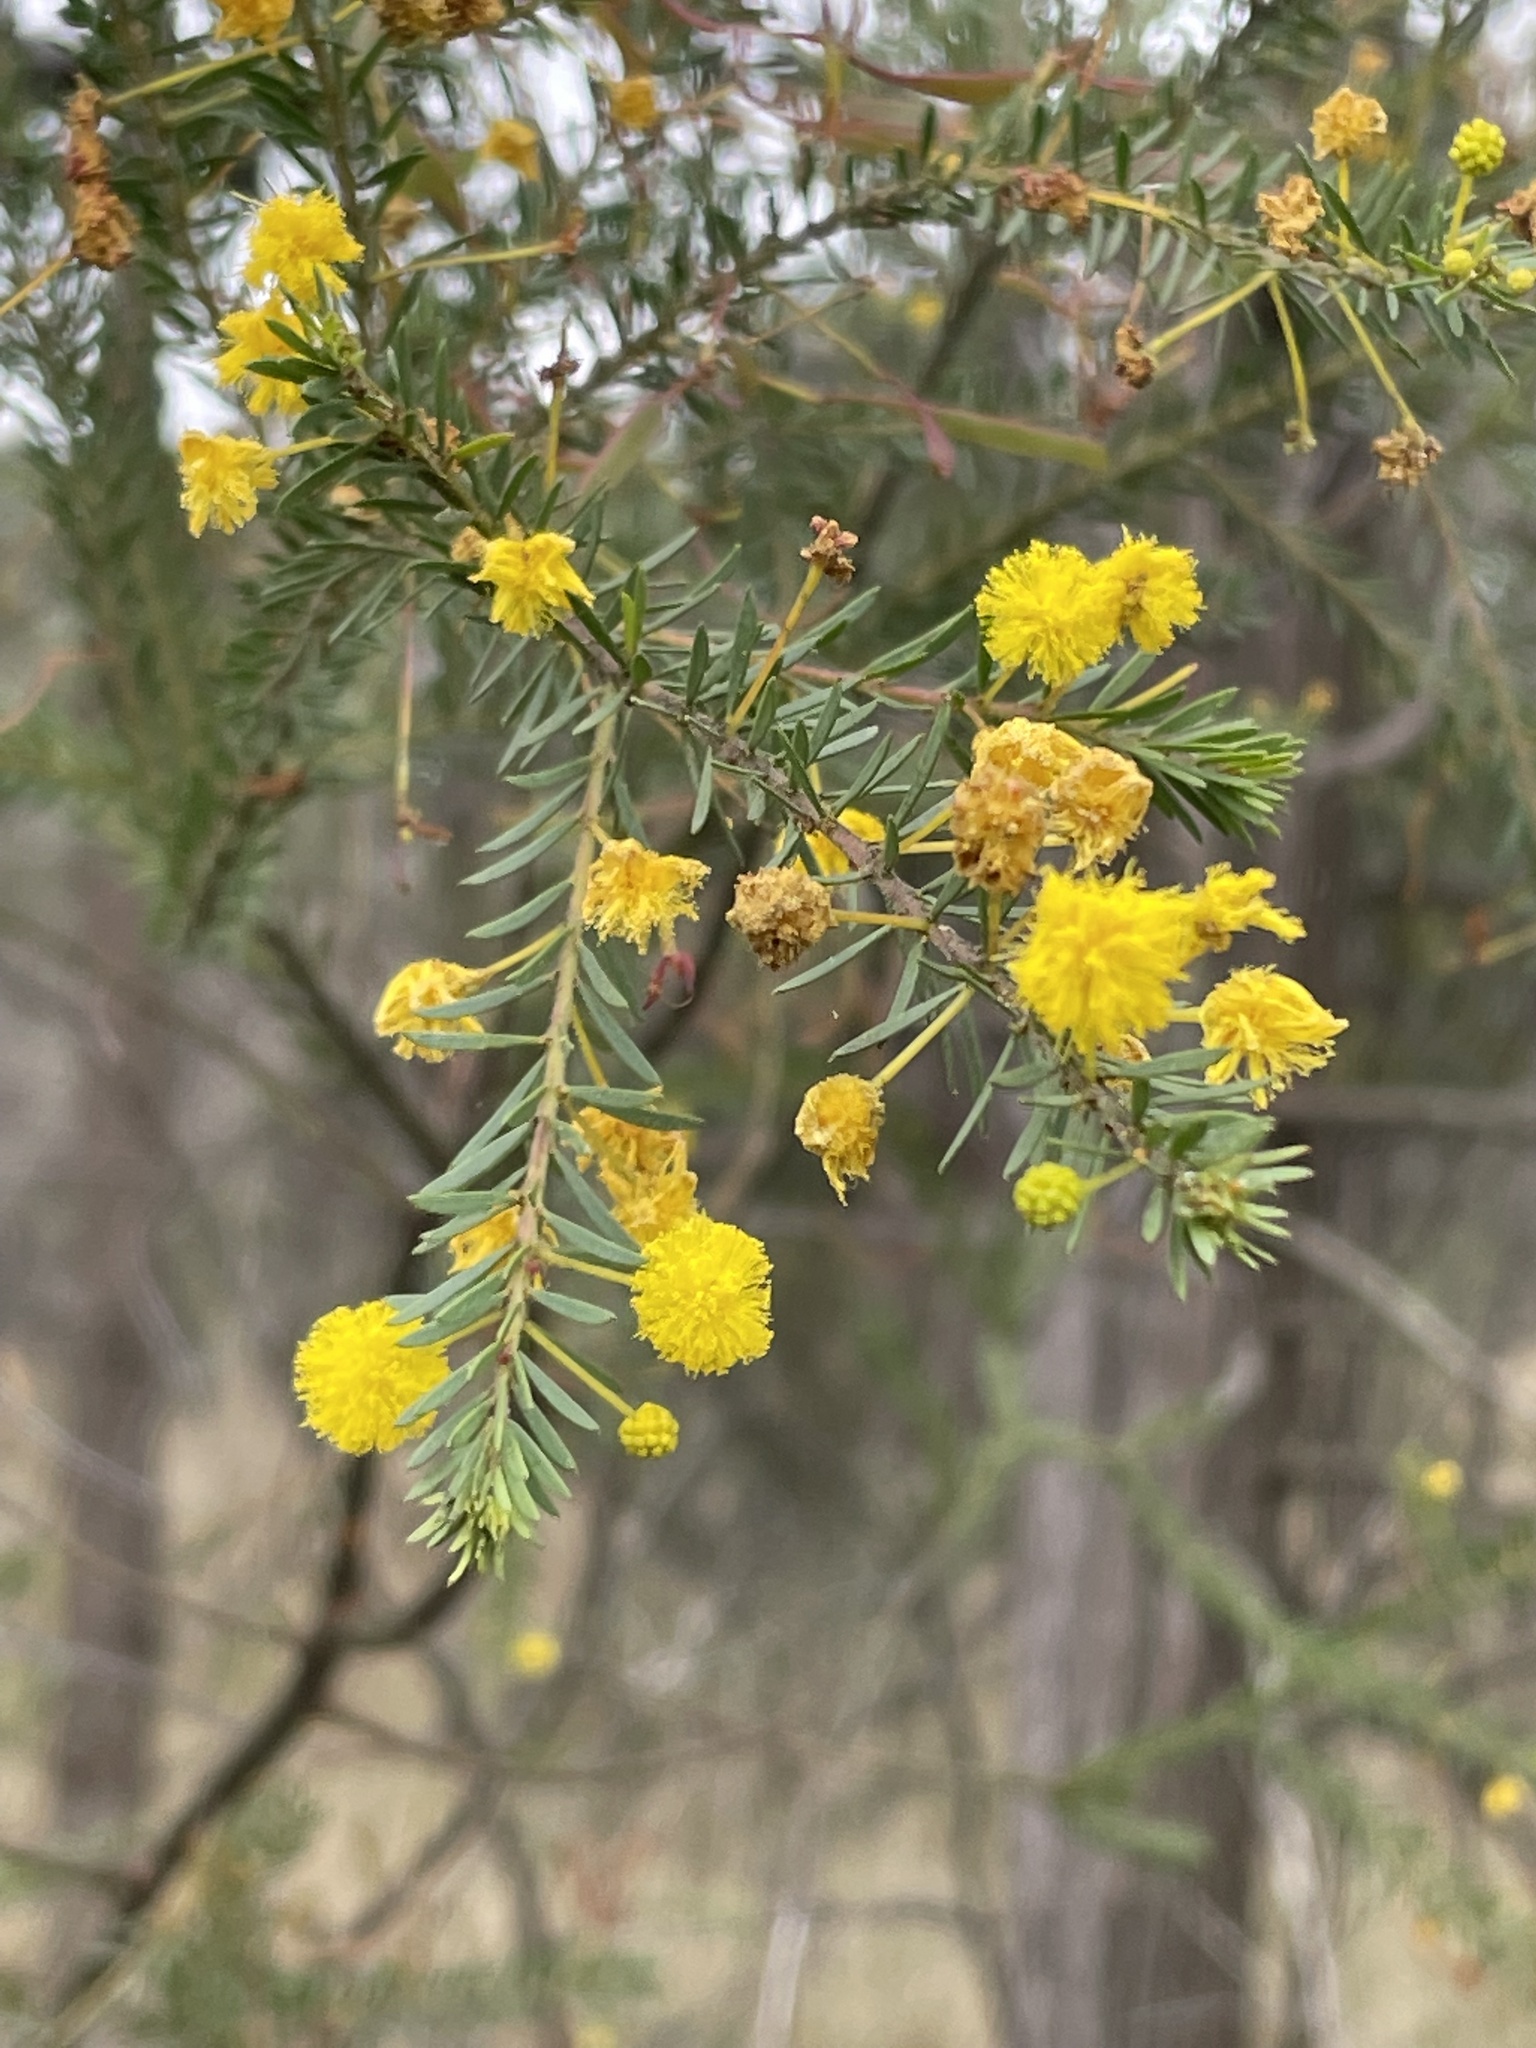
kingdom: Plantae
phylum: Tracheophyta
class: Magnoliopsida
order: Fabales
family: Fabaceae
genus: Acacia
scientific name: Acacia conferta
